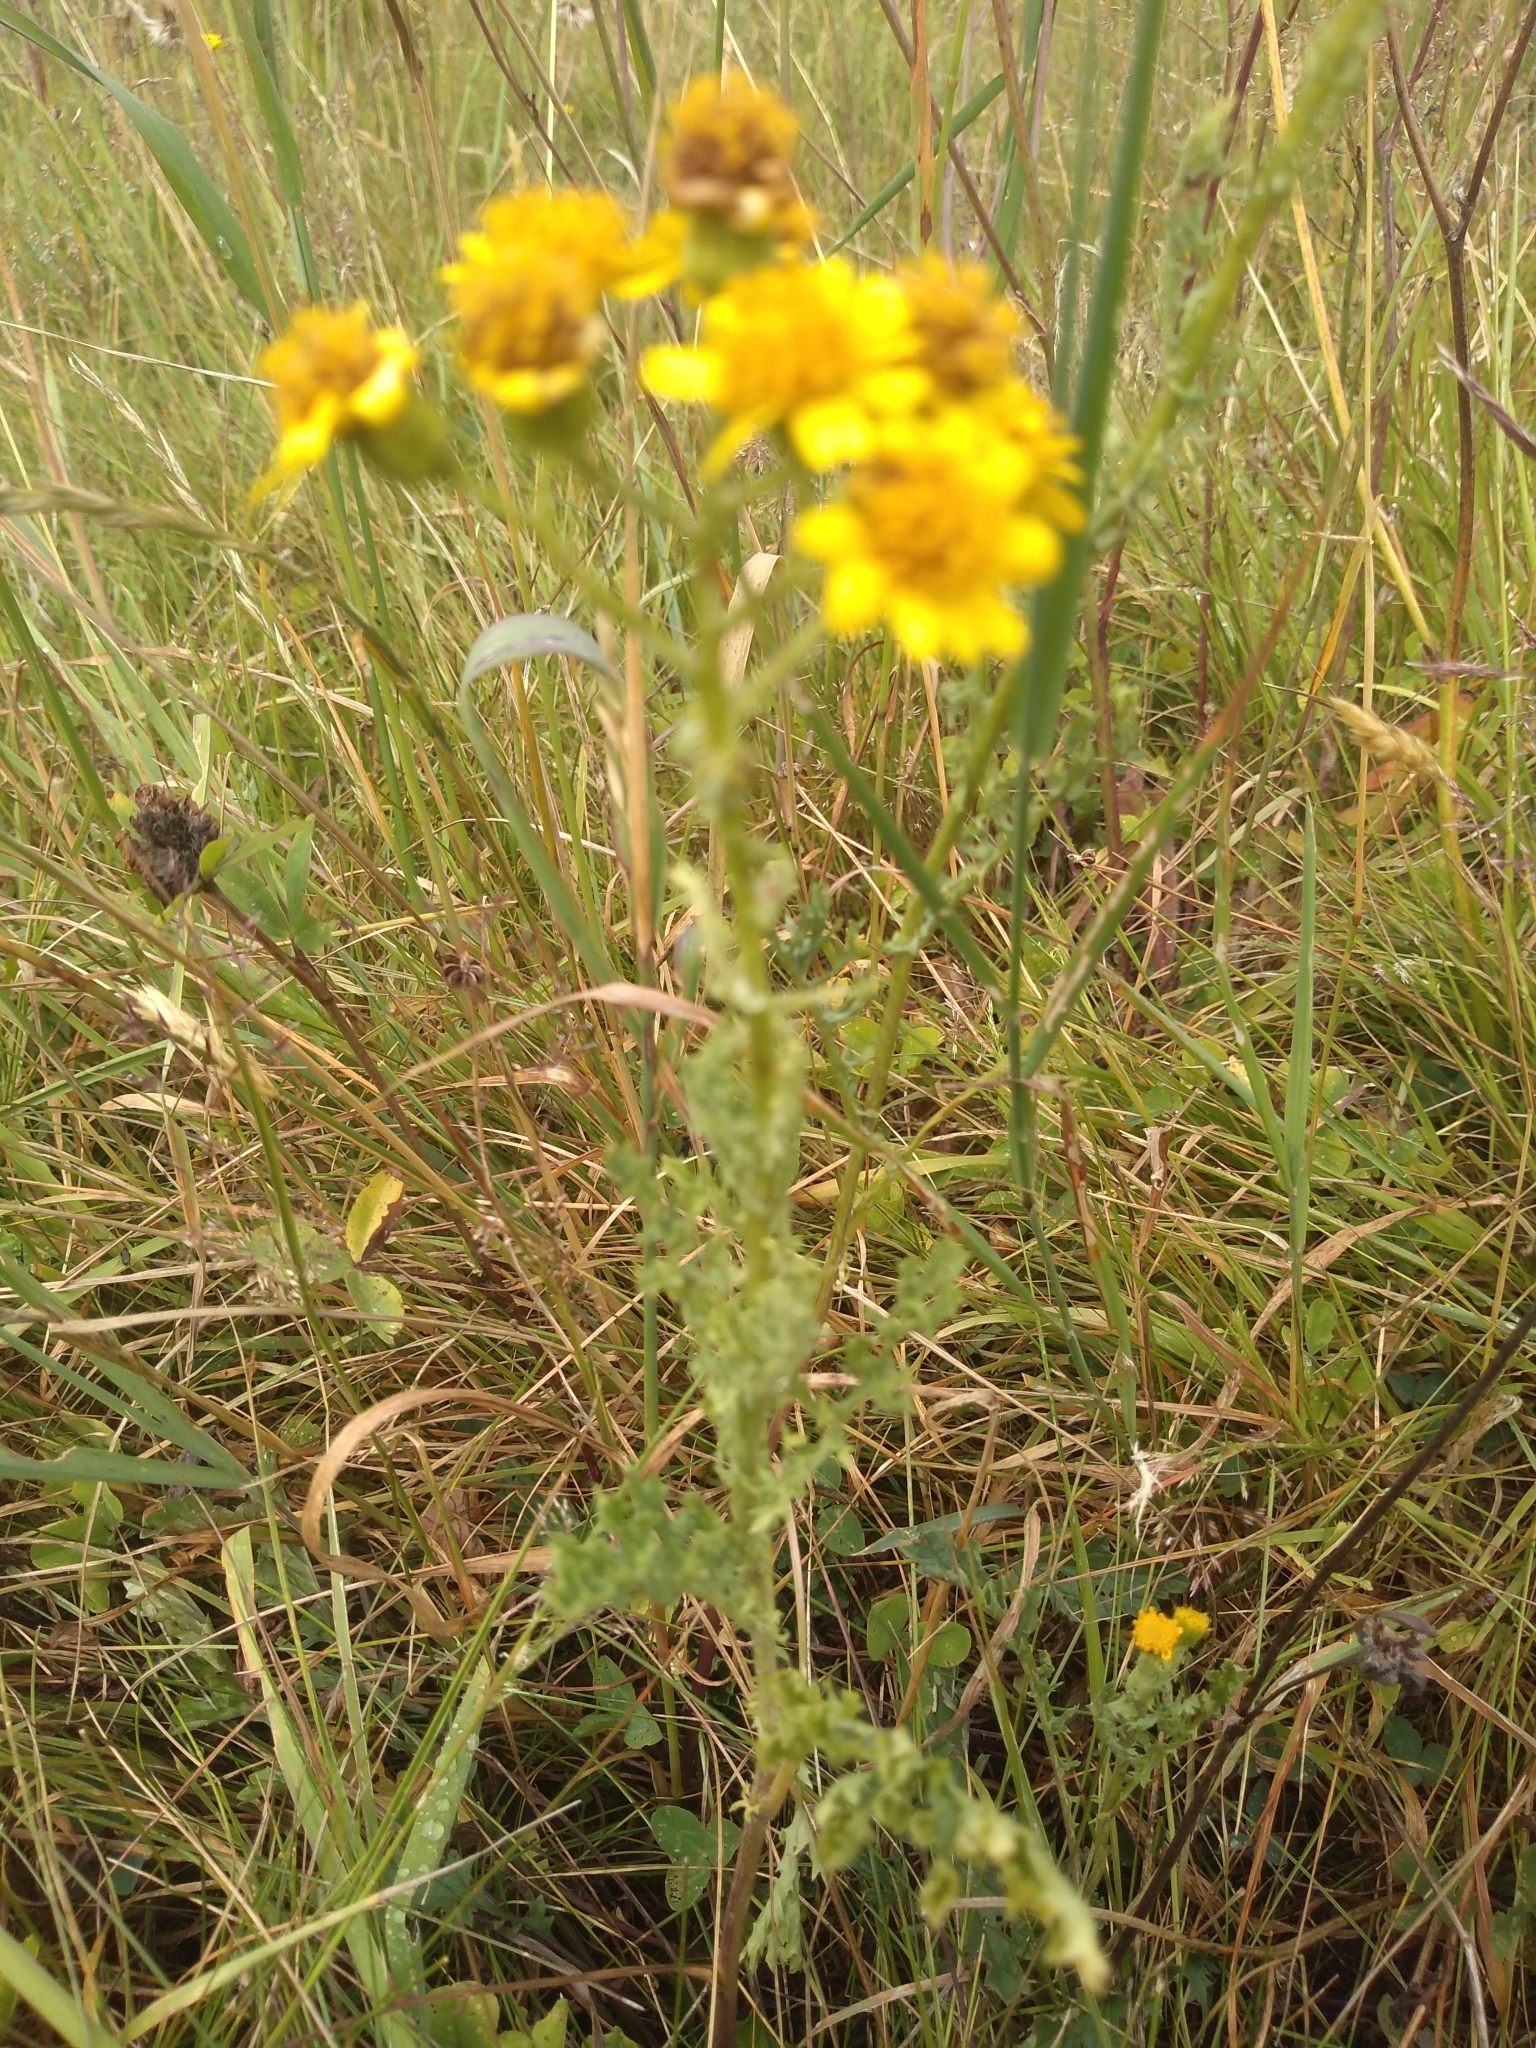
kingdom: Plantae
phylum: Tracheophyta
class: Magnoliopsida
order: Asterales
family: Asteraceae
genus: Jacobaea
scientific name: Jacobaea vulgaris
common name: Stinking willie
